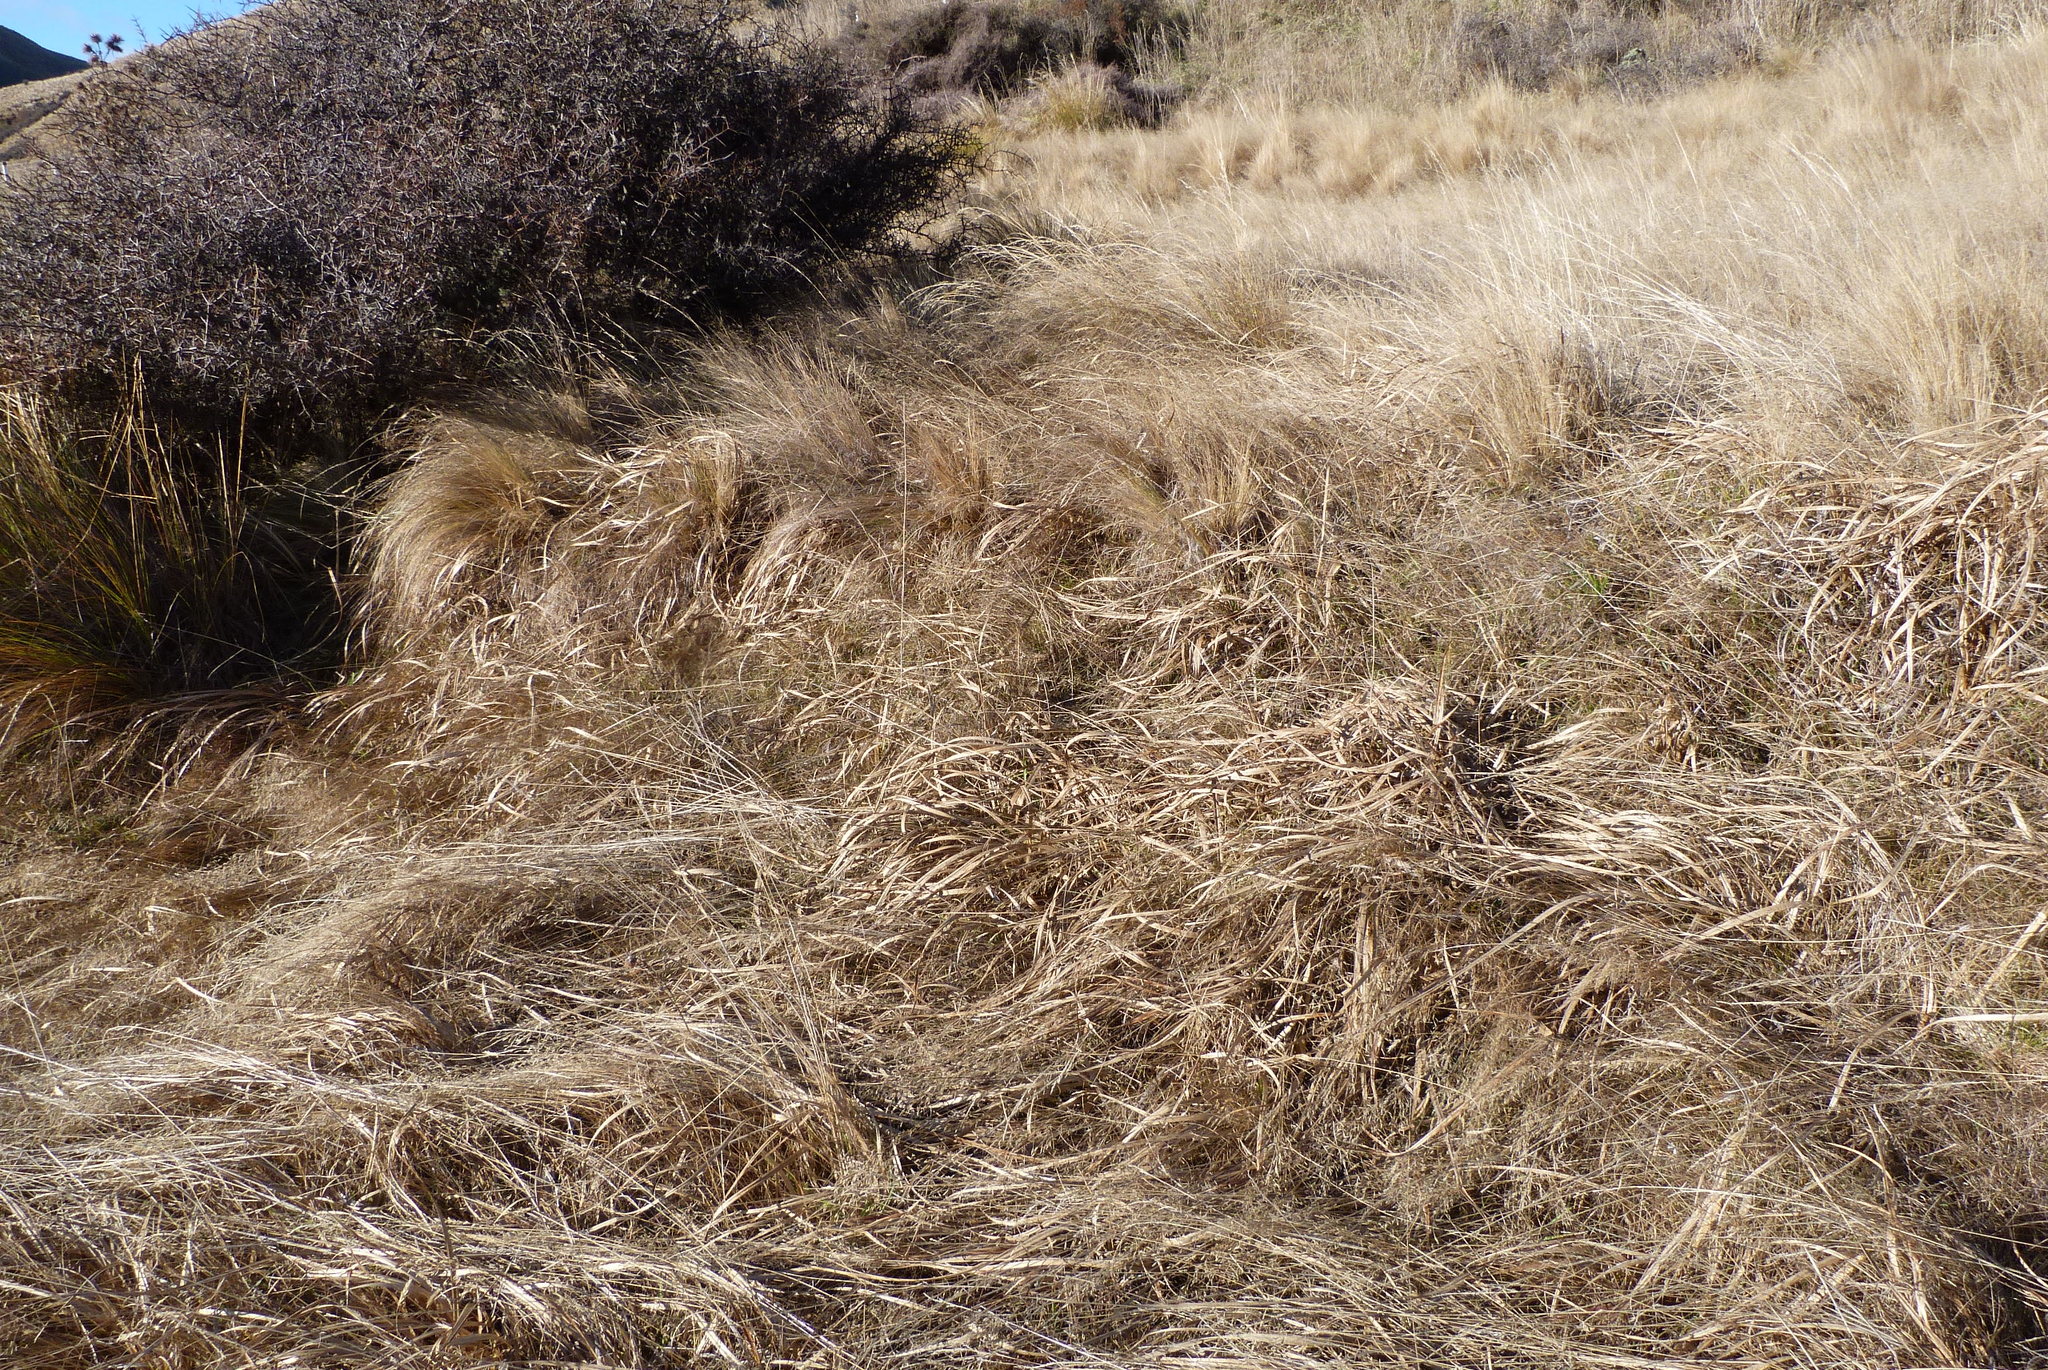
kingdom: Plantae
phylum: Tracheophyta
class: Liliopsida
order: Poales
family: Cyperaceae
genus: Carex
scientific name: Carex coriacea
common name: Rautahi
